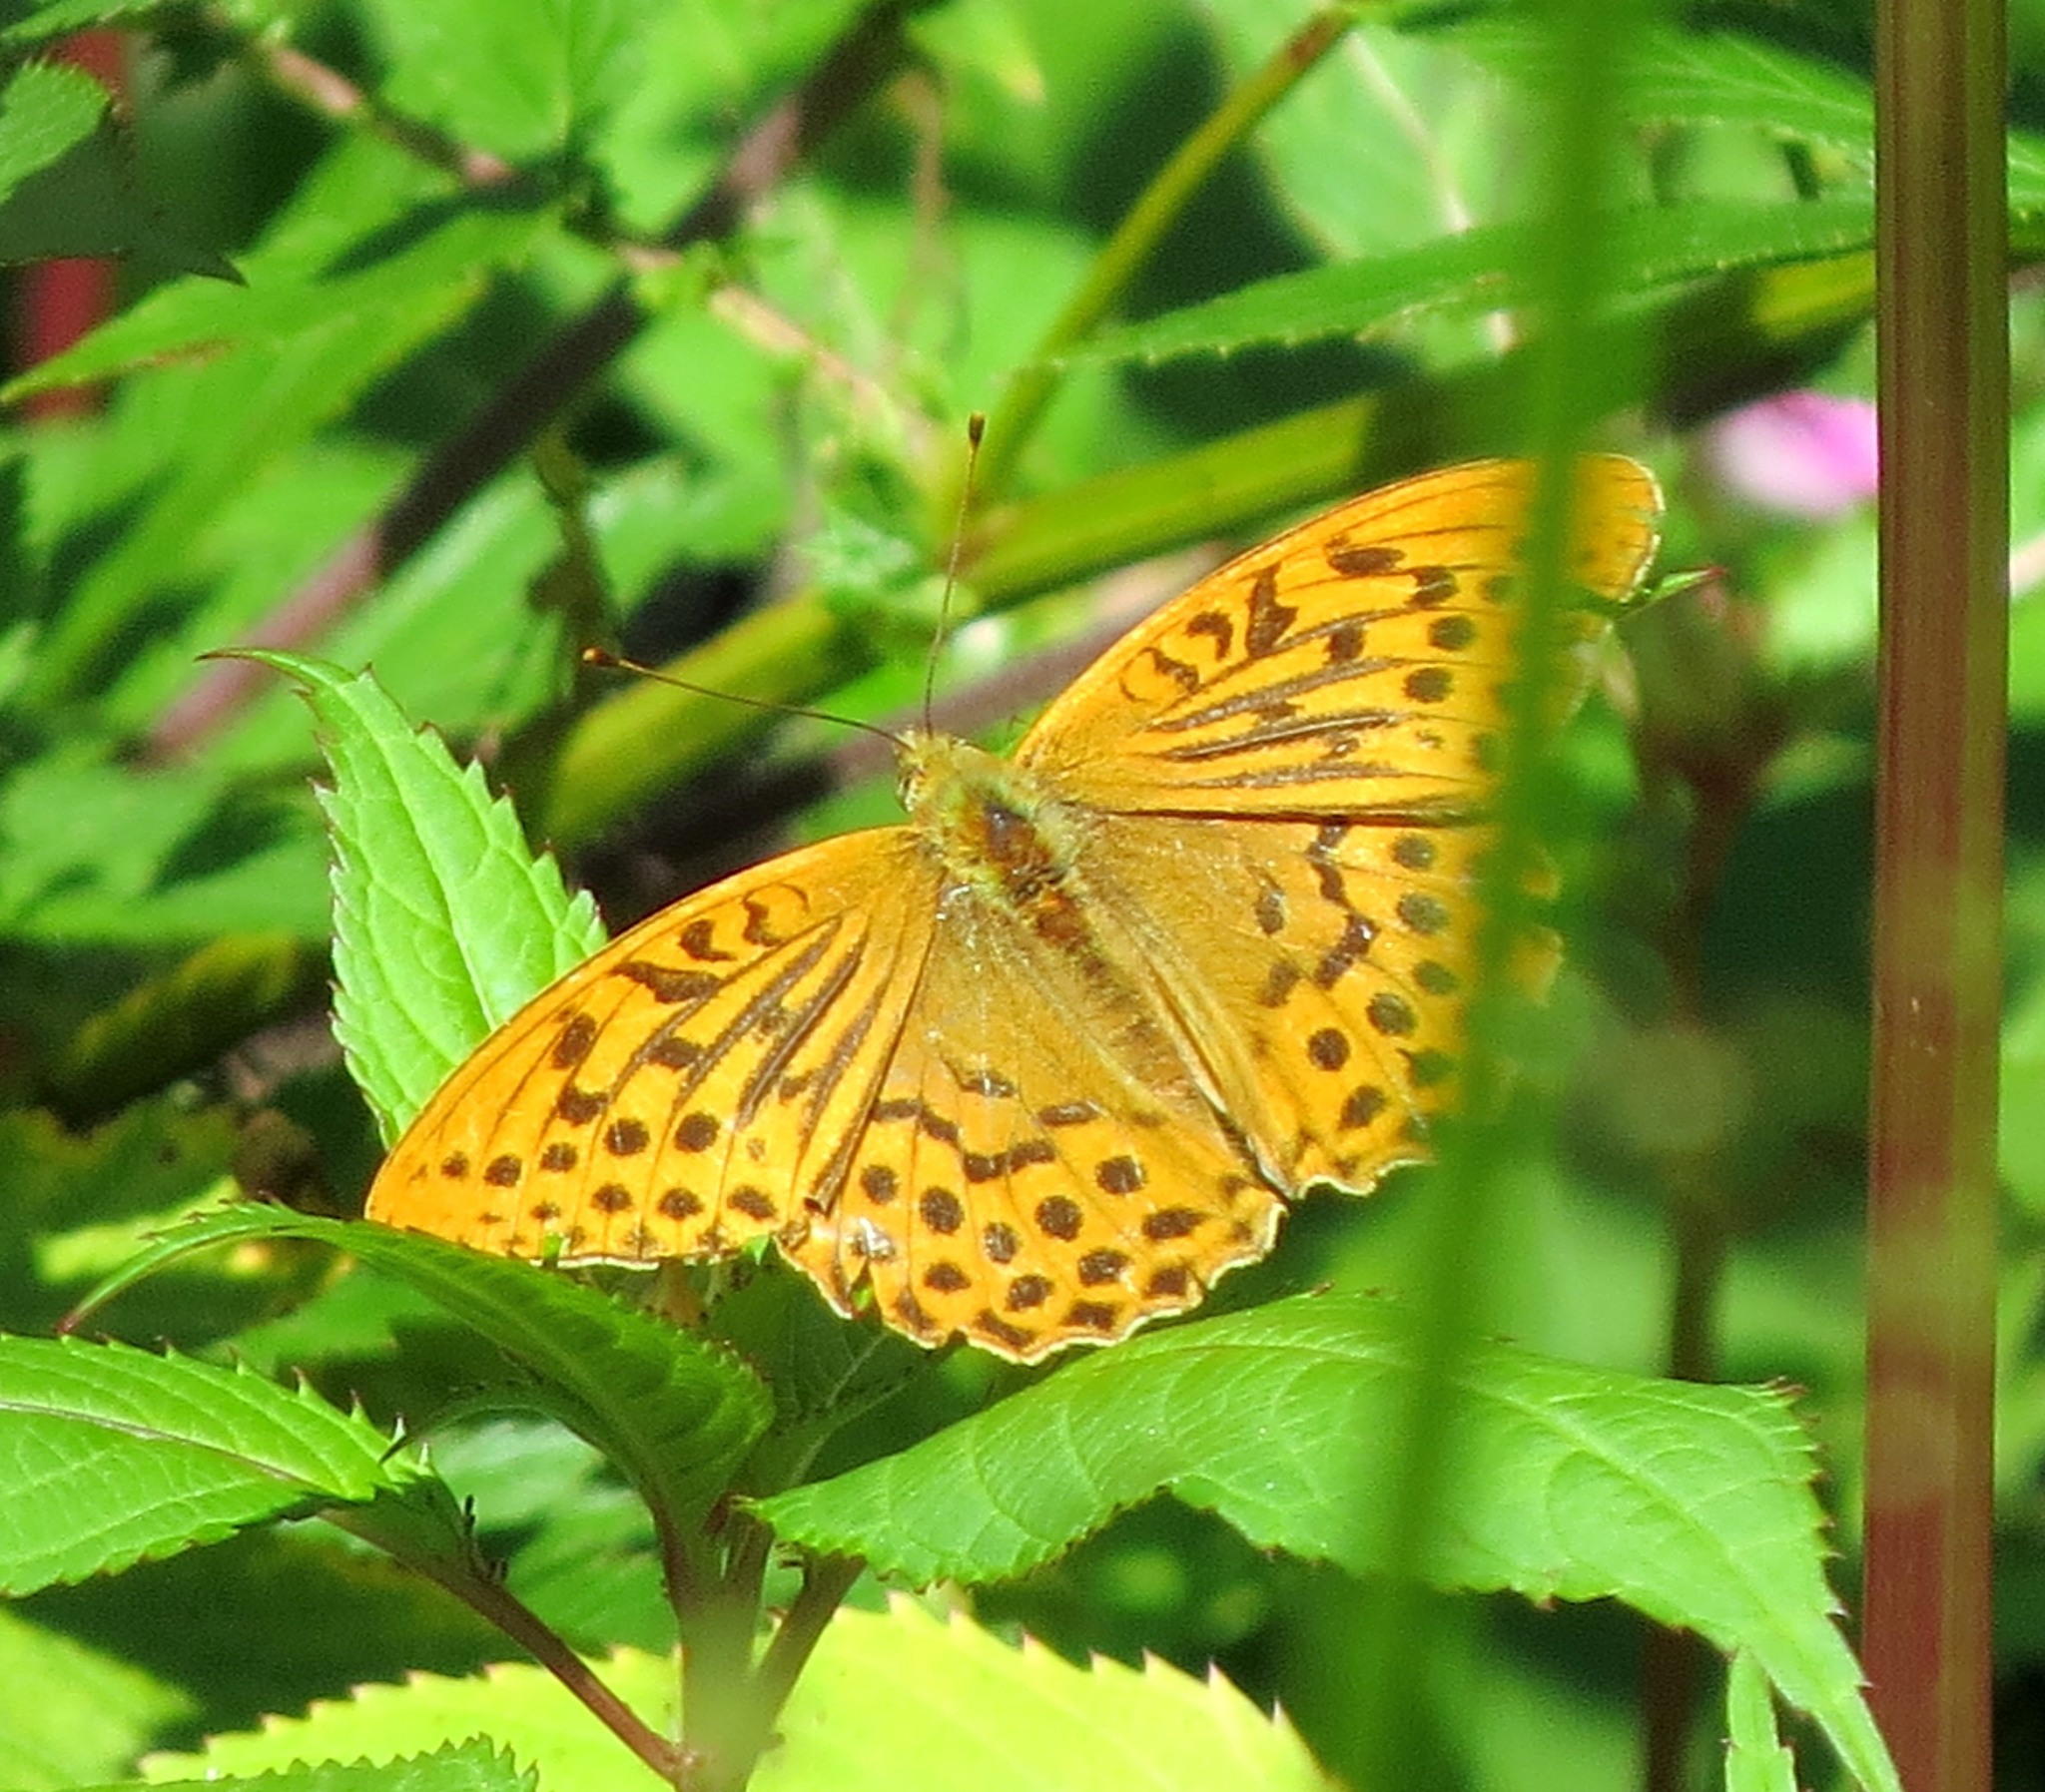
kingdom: Animalia
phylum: Arthropoda
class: Insecta
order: Lepidoptera
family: Nymphalidae
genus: Argynnis
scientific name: Argynnis paphia
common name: Silver-washed fritillary
